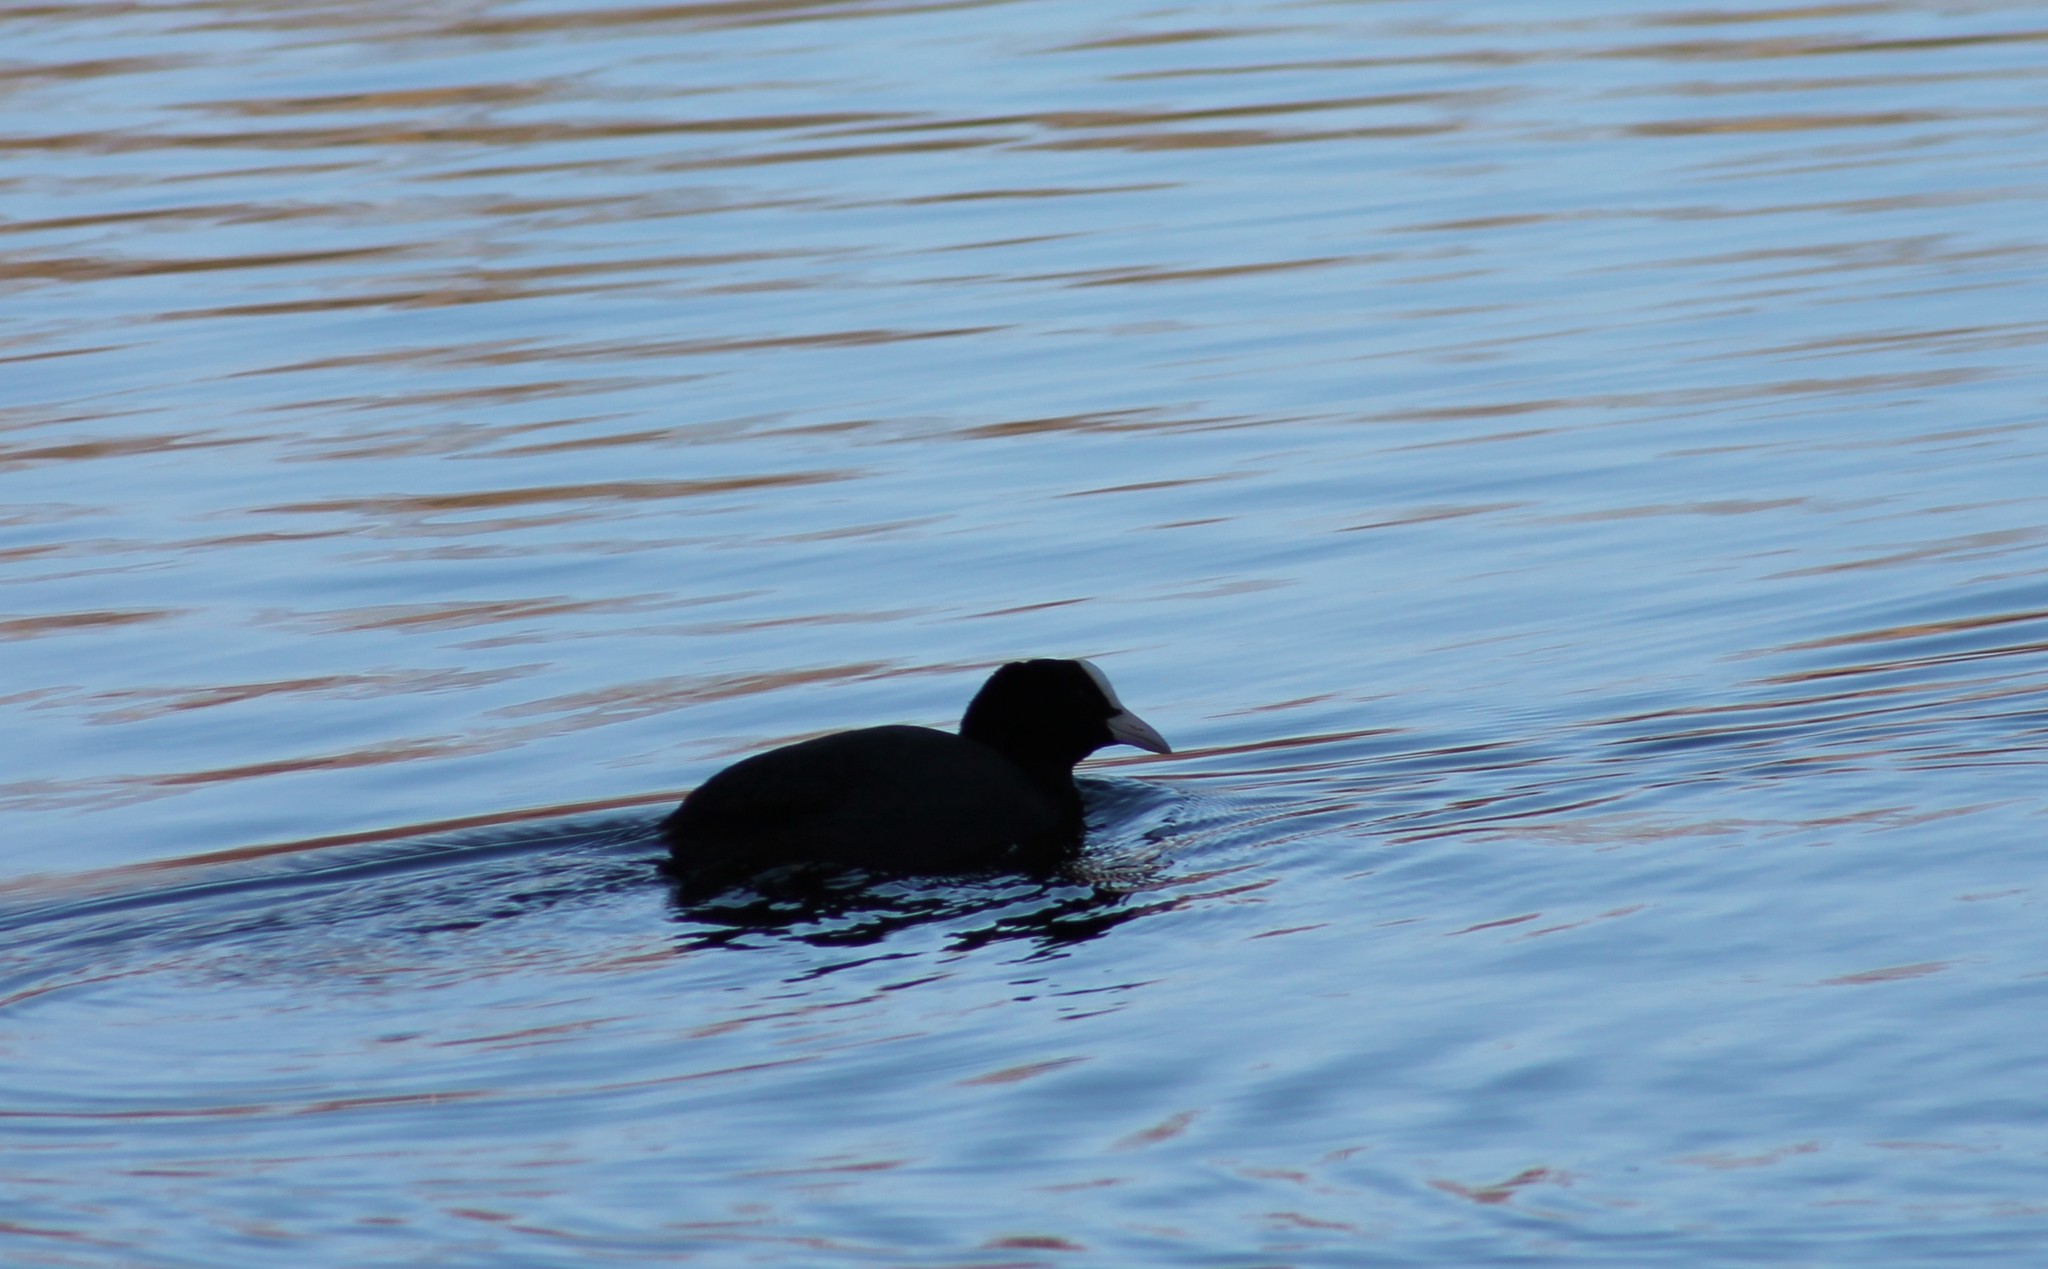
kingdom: Animalia
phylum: Chordata
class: Aves
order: Gruiformes
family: Rallidae
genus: Fulica
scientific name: Fulica atra
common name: Eurasian coot
